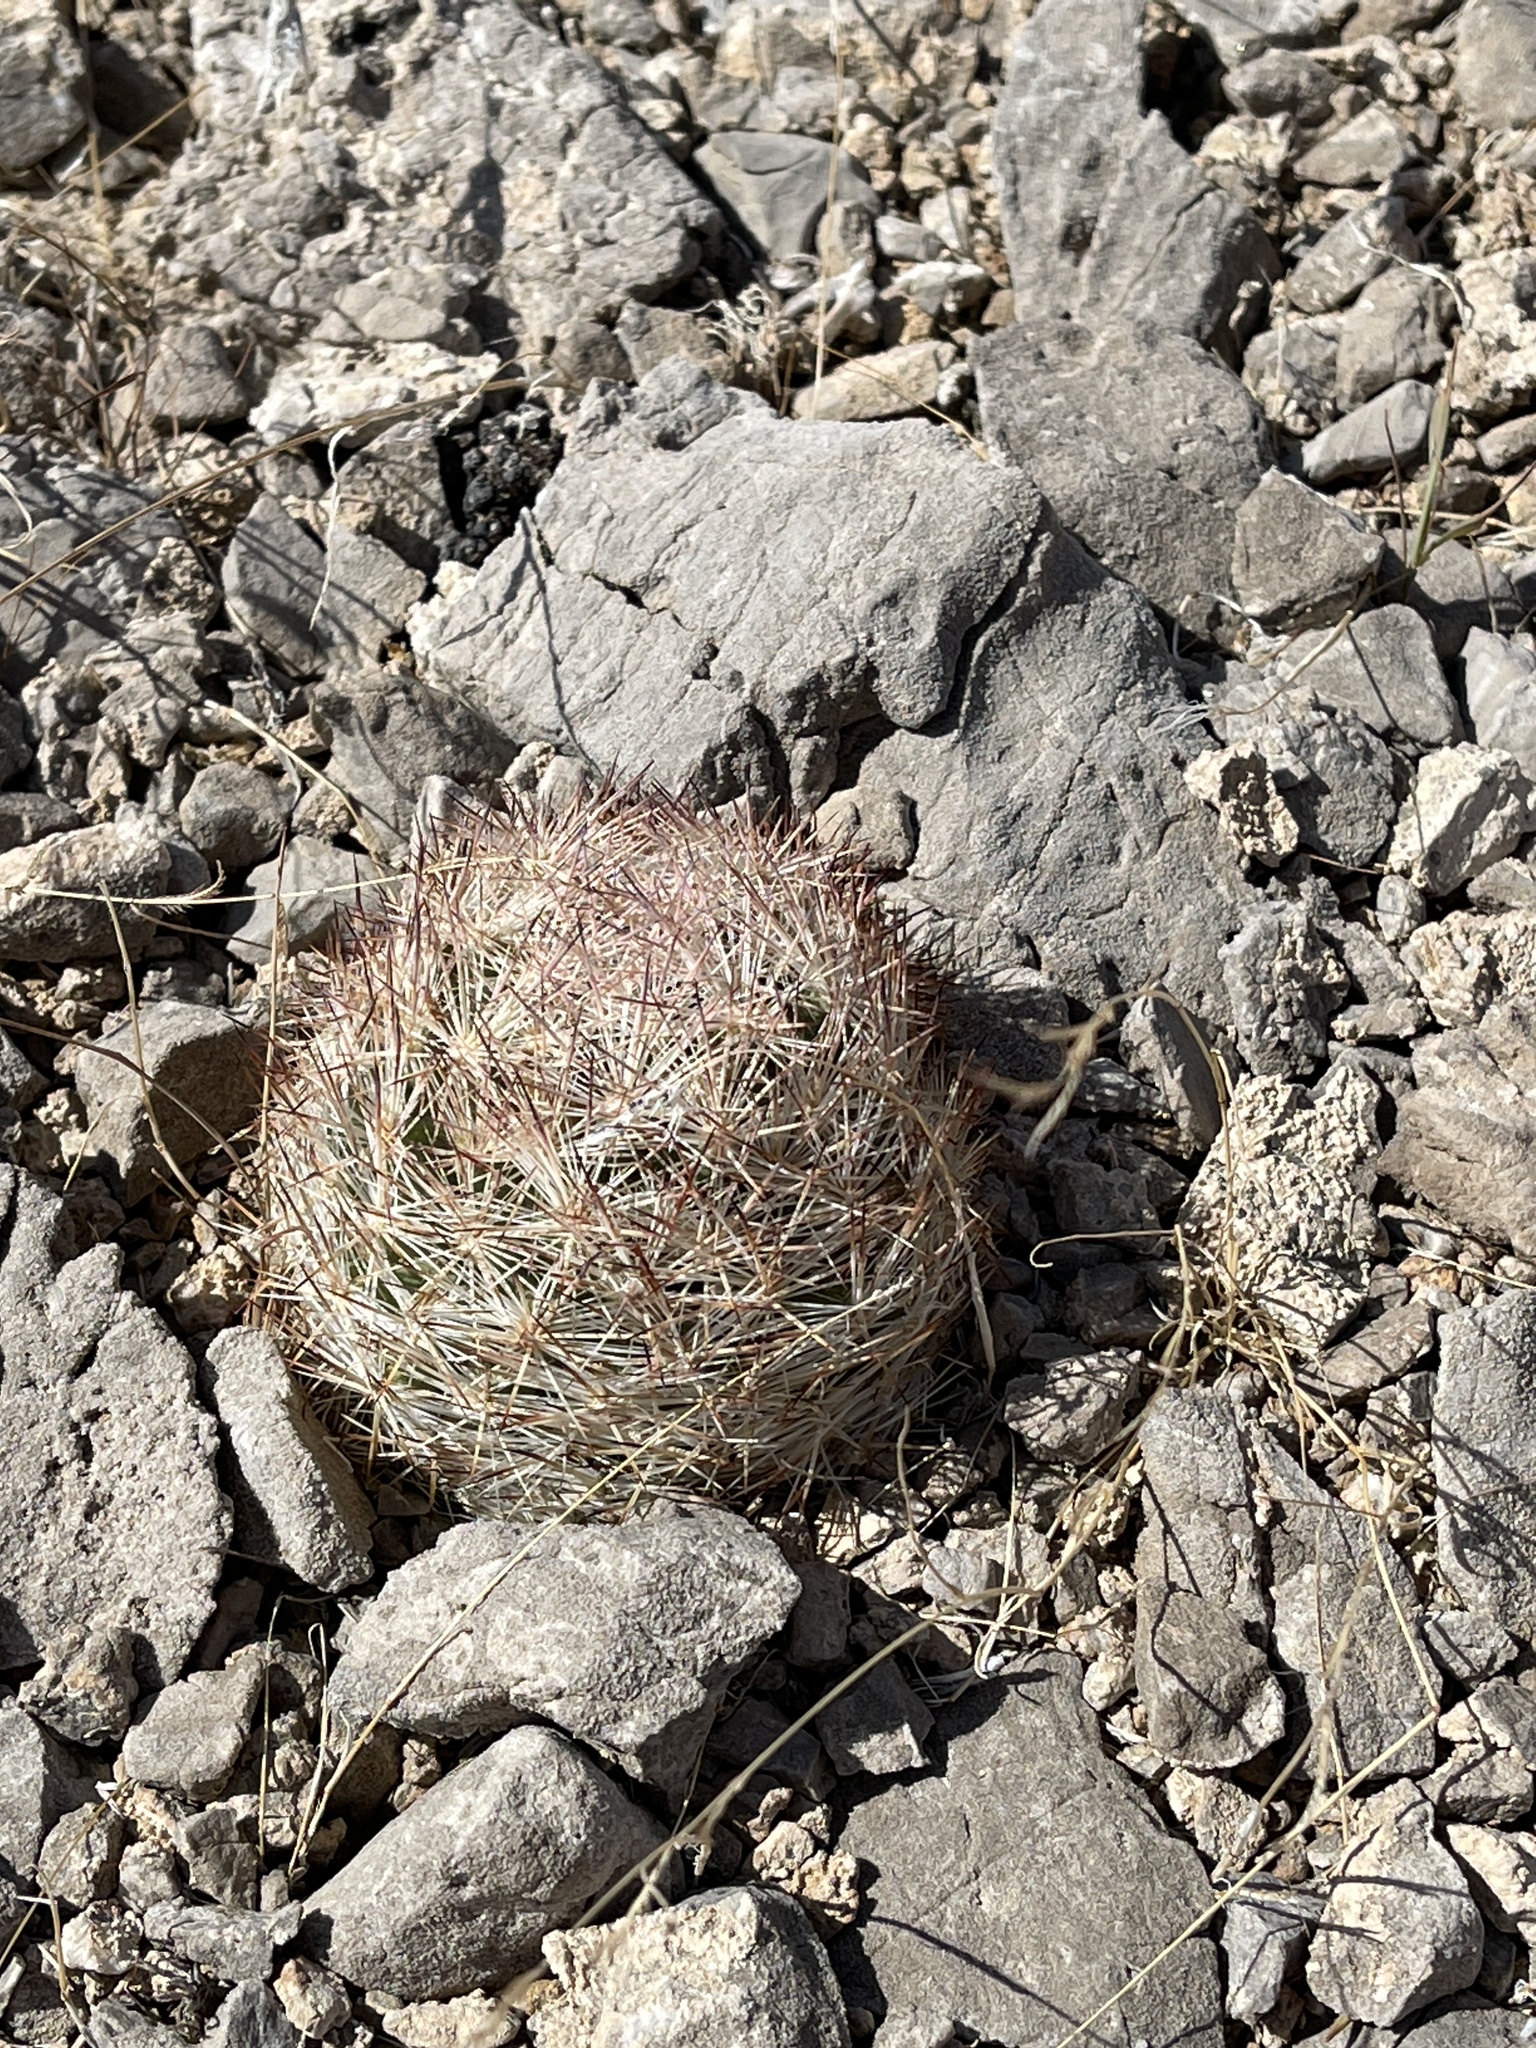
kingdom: Plantae
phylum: Tracheophyta
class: Magnoliopsida
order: Caryophyllales
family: Cactaceae
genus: Pelecyphora
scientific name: Pelecyphora dasyacantha
